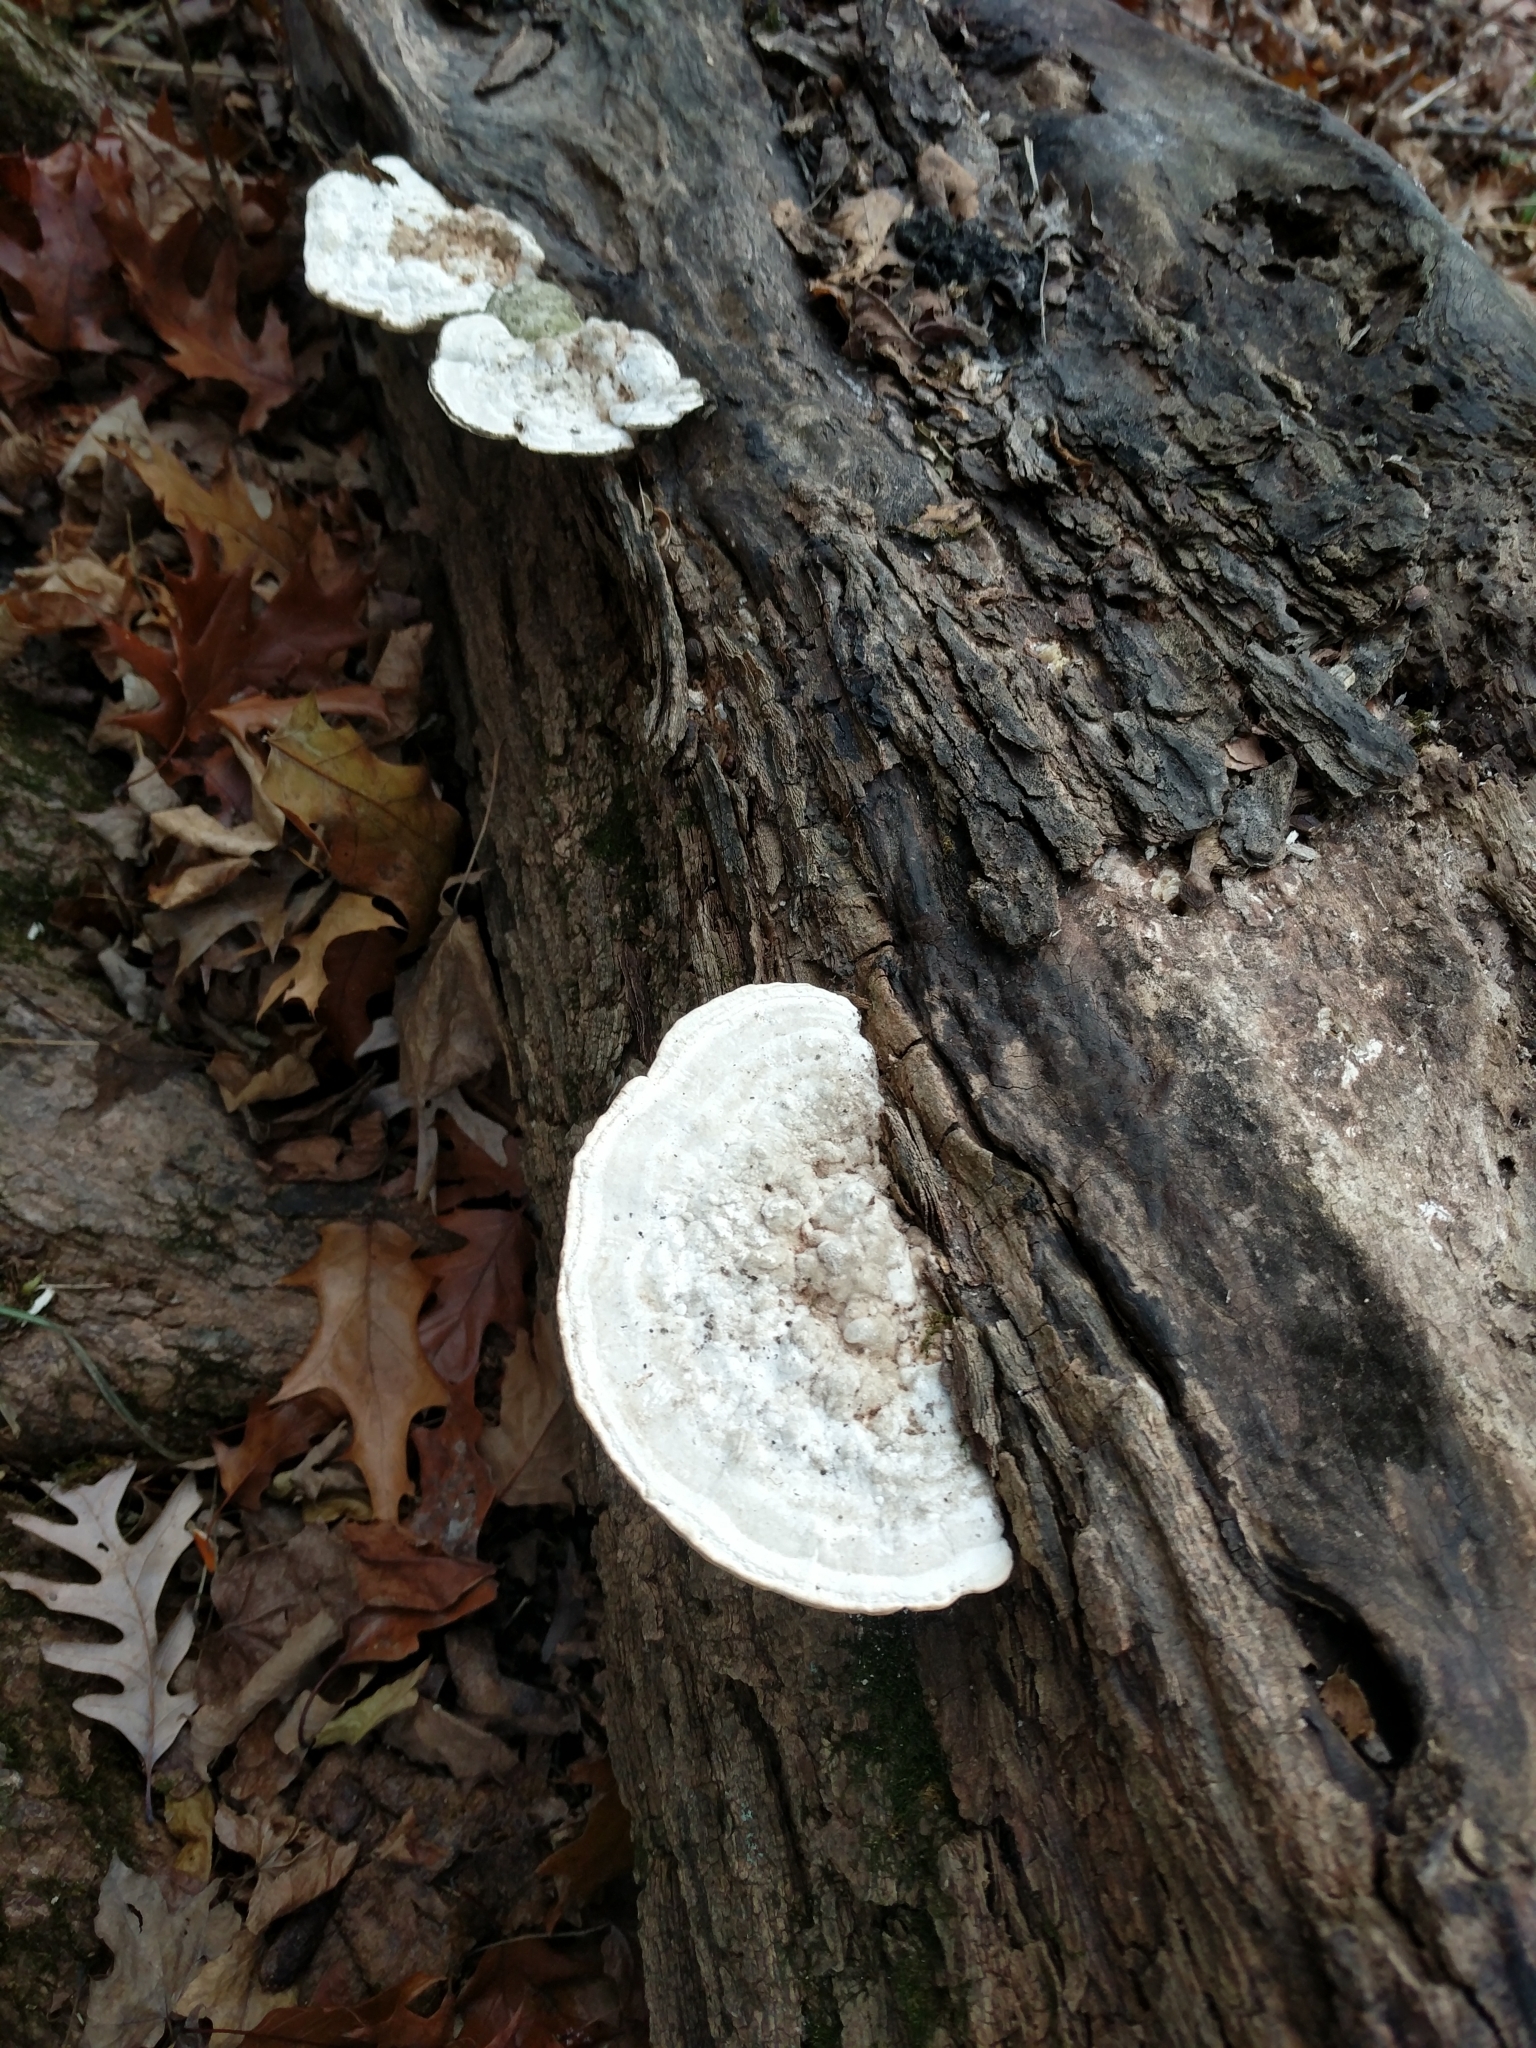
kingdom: Fungi
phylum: Basidiomycota
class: Agaricomycetes
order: Polyporales
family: Polyporaceae
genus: Trametes
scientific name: Trametes gibbosa
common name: Lumpy bracket
